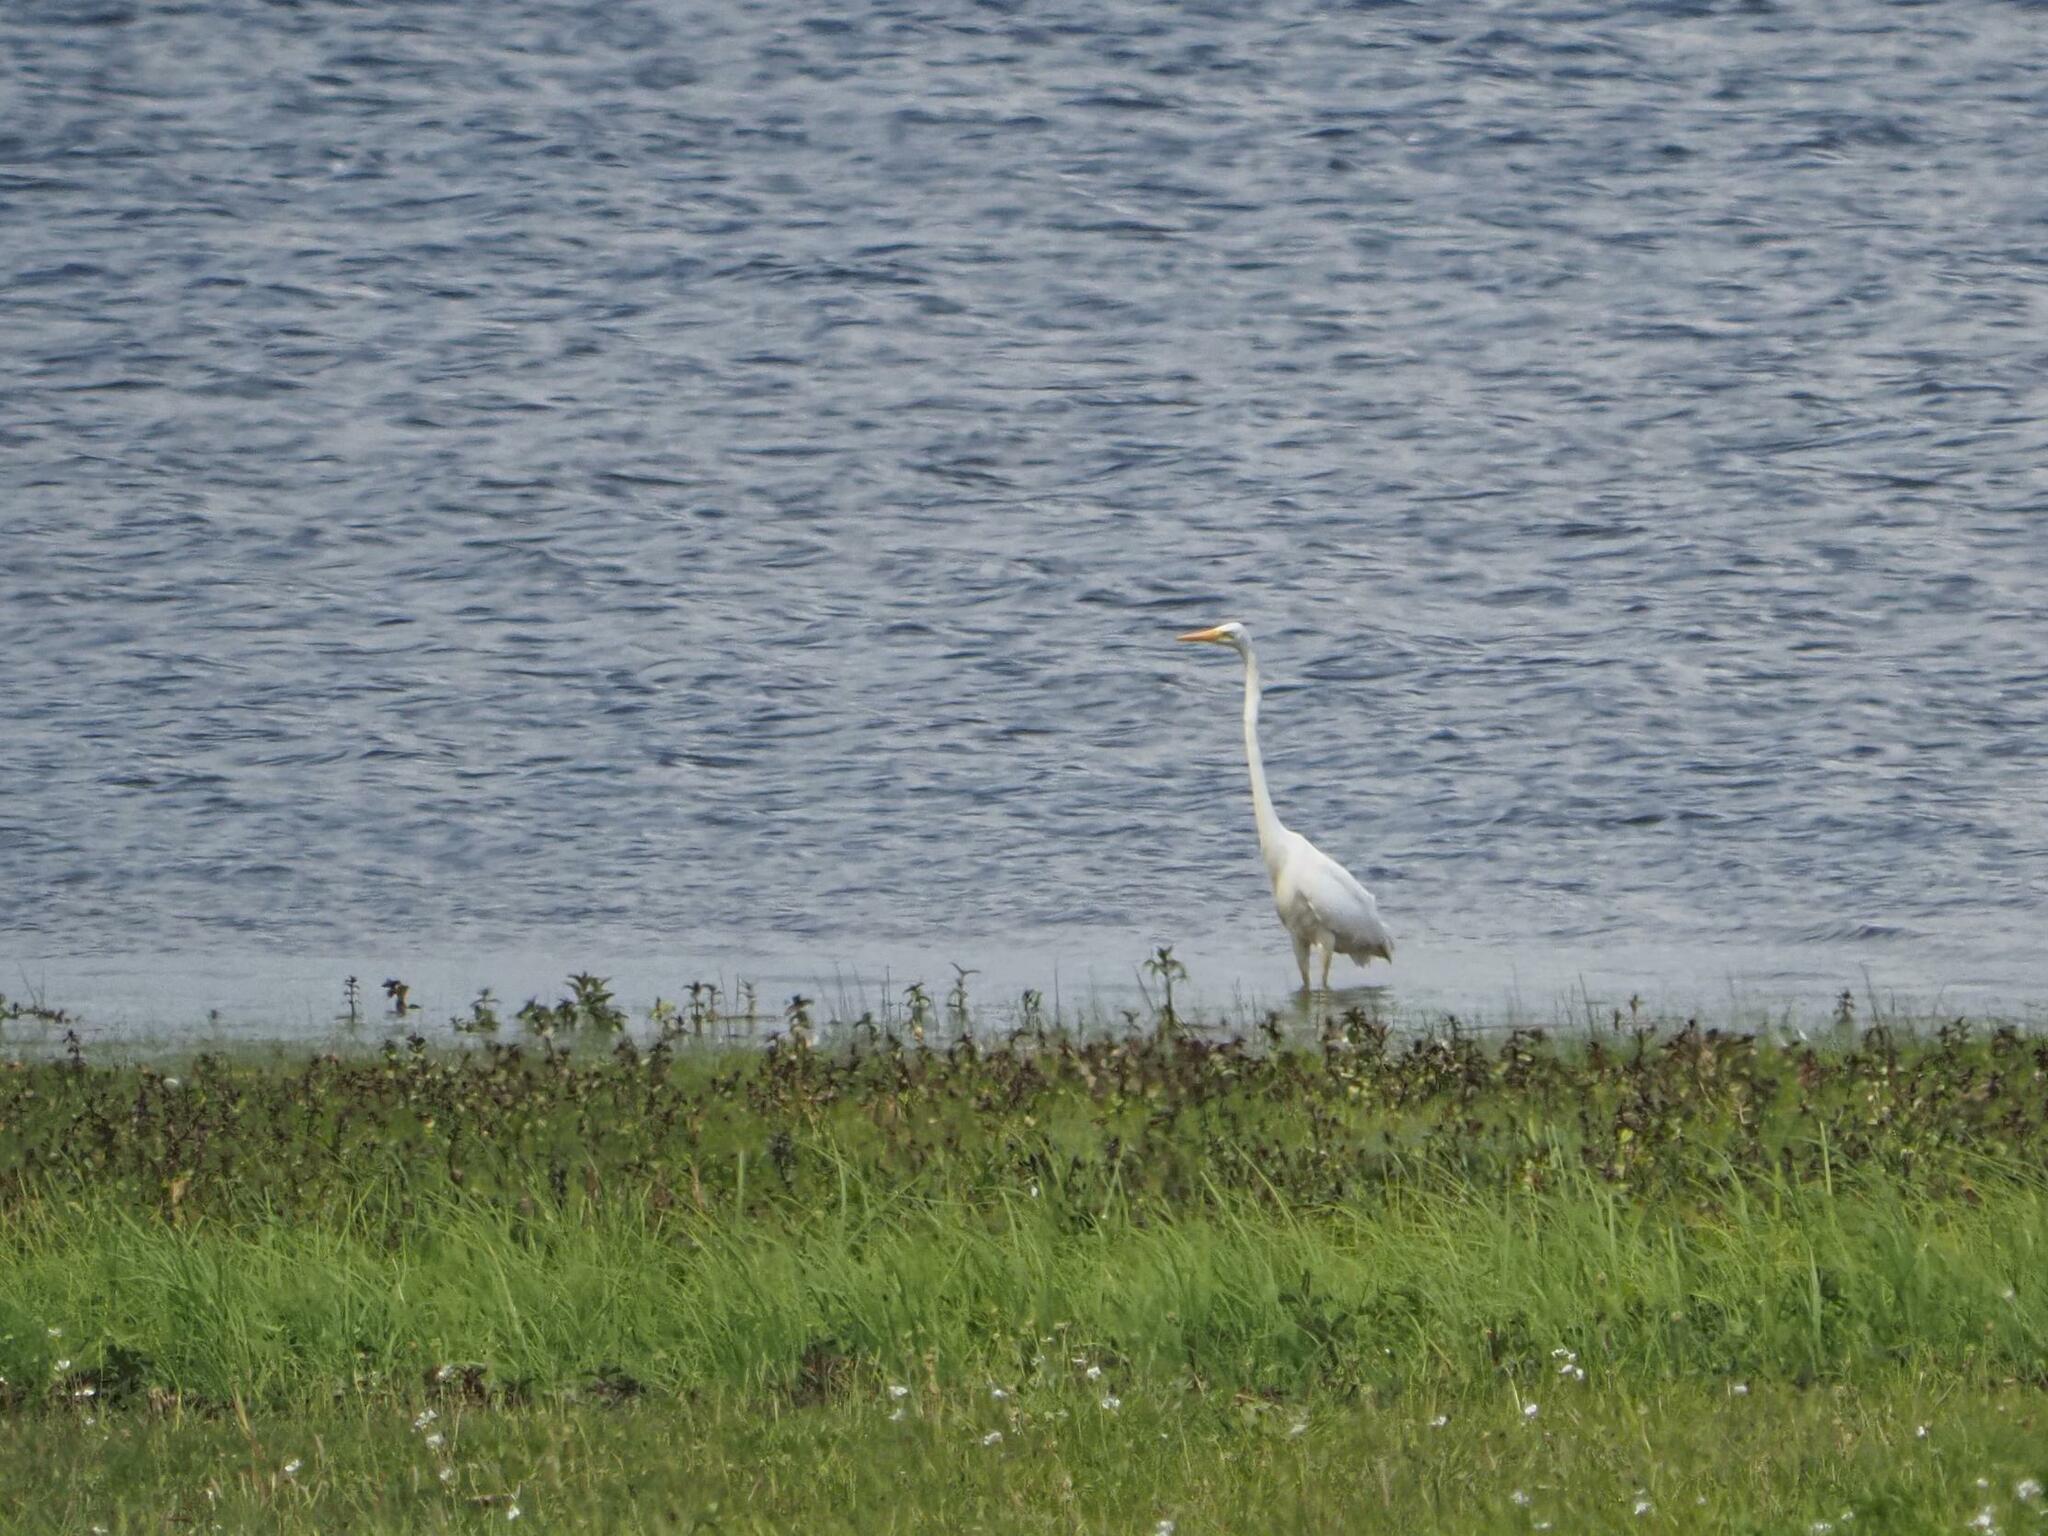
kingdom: Animalia
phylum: Chordata
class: Aves
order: Pelecaniformes
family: Ardeidae
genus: Ardea
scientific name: Ardea alba
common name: Great egret
